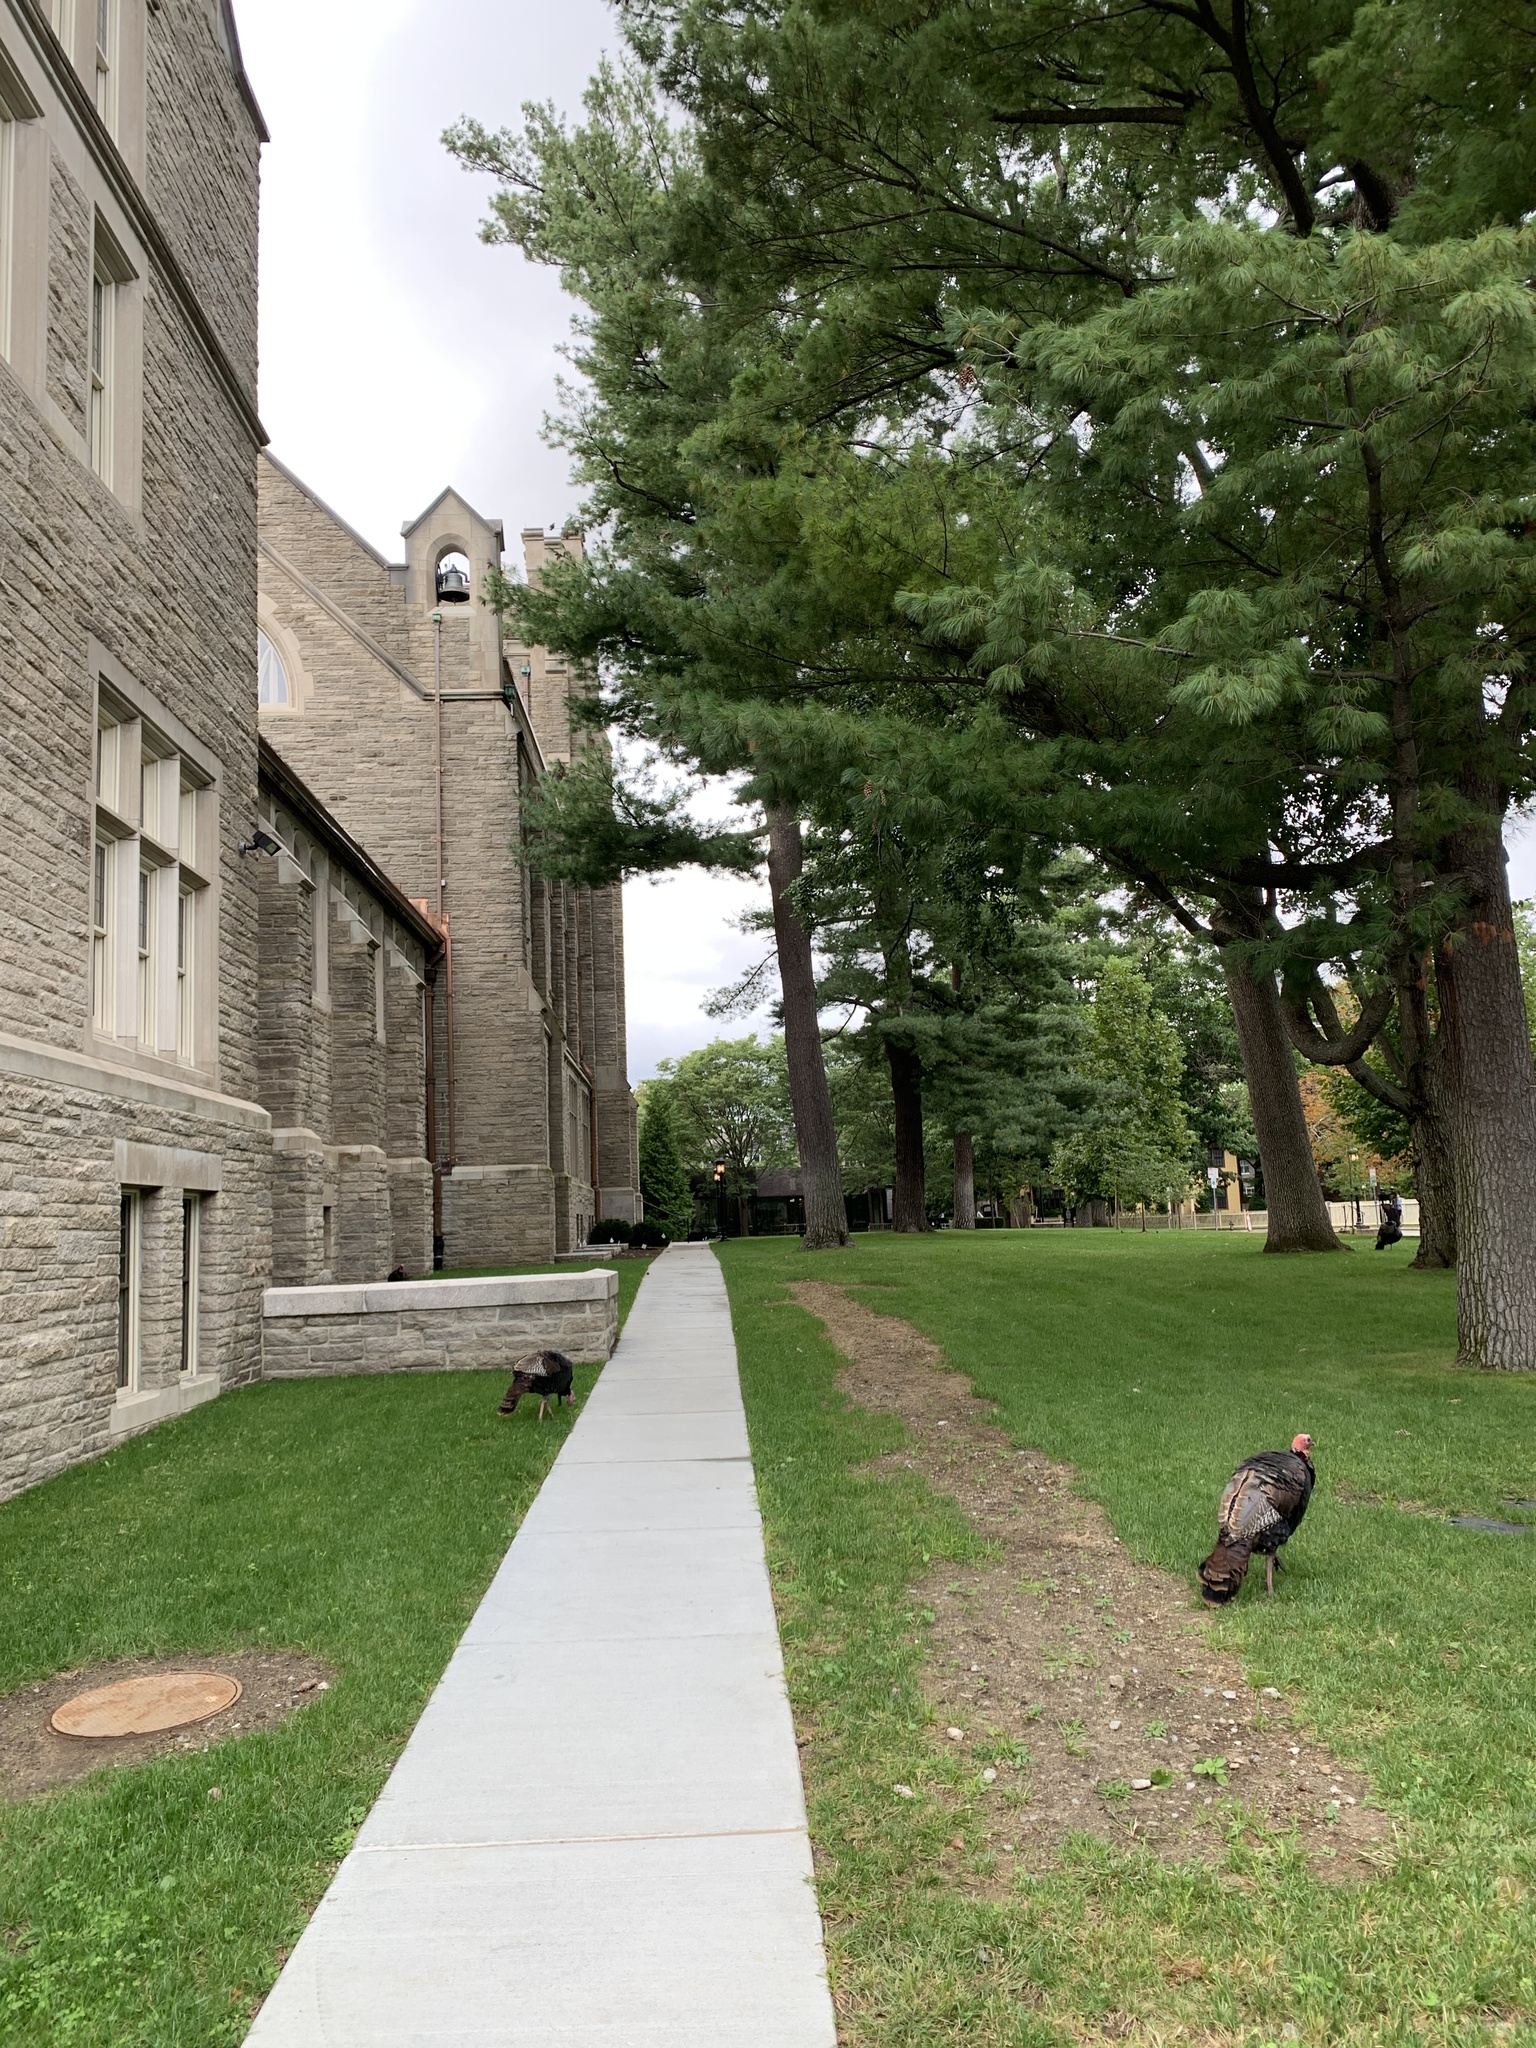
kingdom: Animalia
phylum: Chordata
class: Aves
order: Galliformes
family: Phasianidae
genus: Meleagris
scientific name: Meleagris gallopavo
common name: Wild turkey
